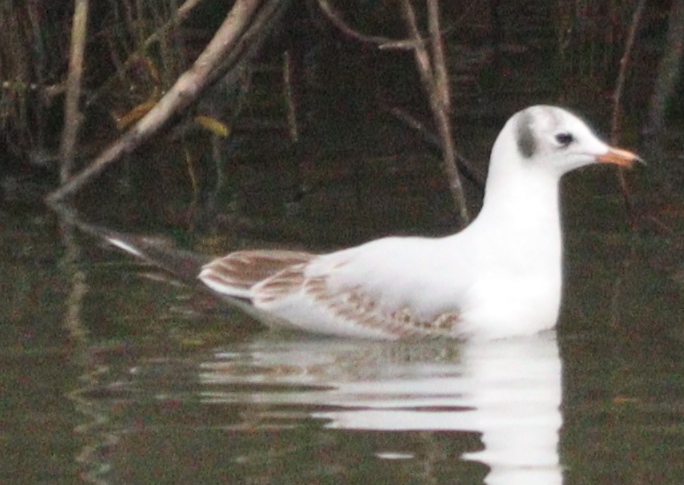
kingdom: Animalia
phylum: Chordata
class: Aves
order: Charadriiformes
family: Laridae
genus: Chroicocephalus
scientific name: Chroicocephalus ridibundus
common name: Black-headed gull
